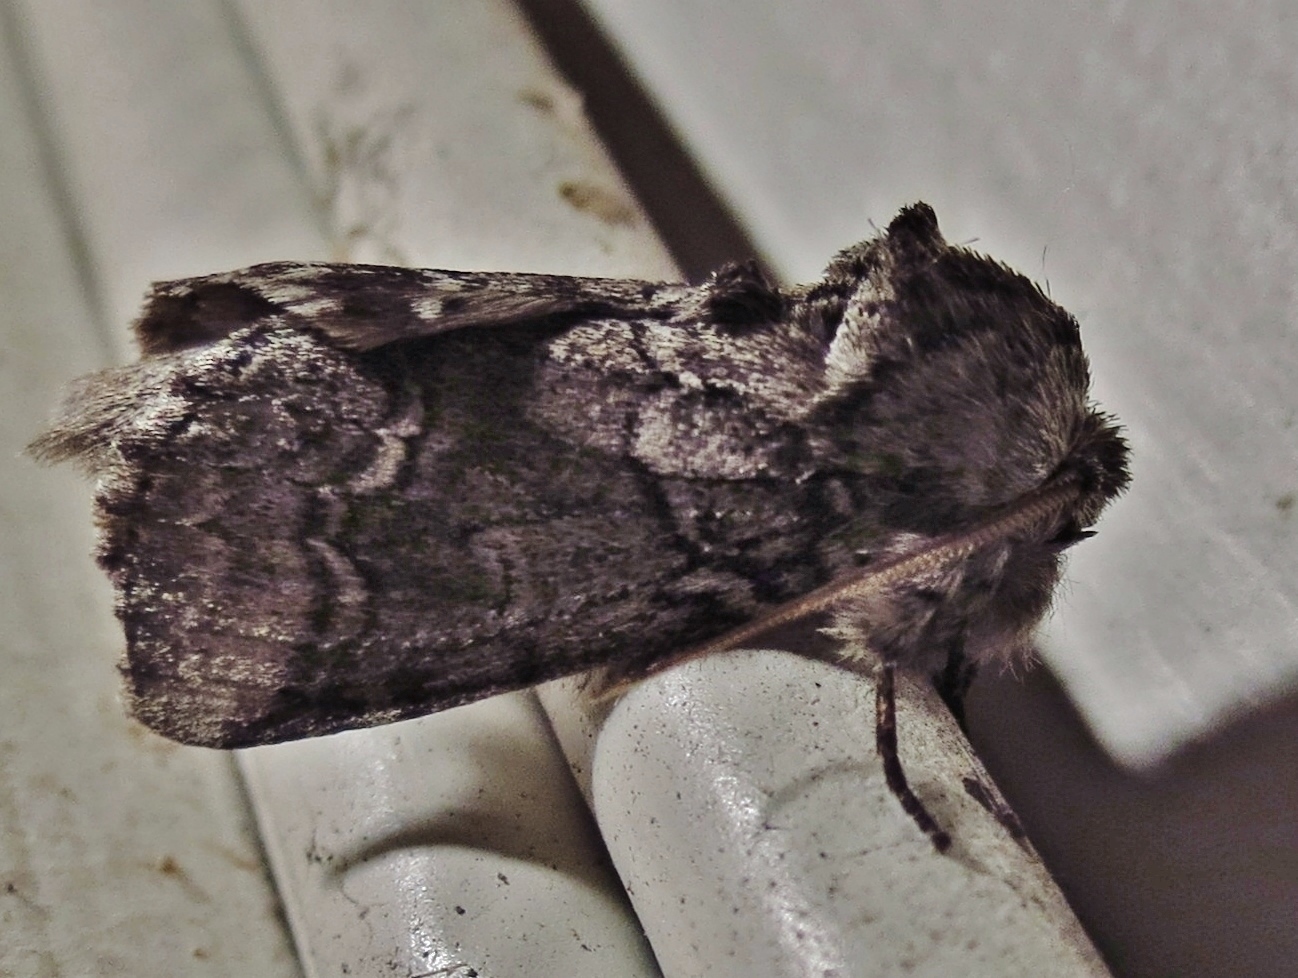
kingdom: Animalia
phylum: Arthropoda
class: Insecta
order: Lepidoptera
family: Notodontidae
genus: Lochmaeus
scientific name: Lochmaeus bilineata
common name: Double-lined prominent
